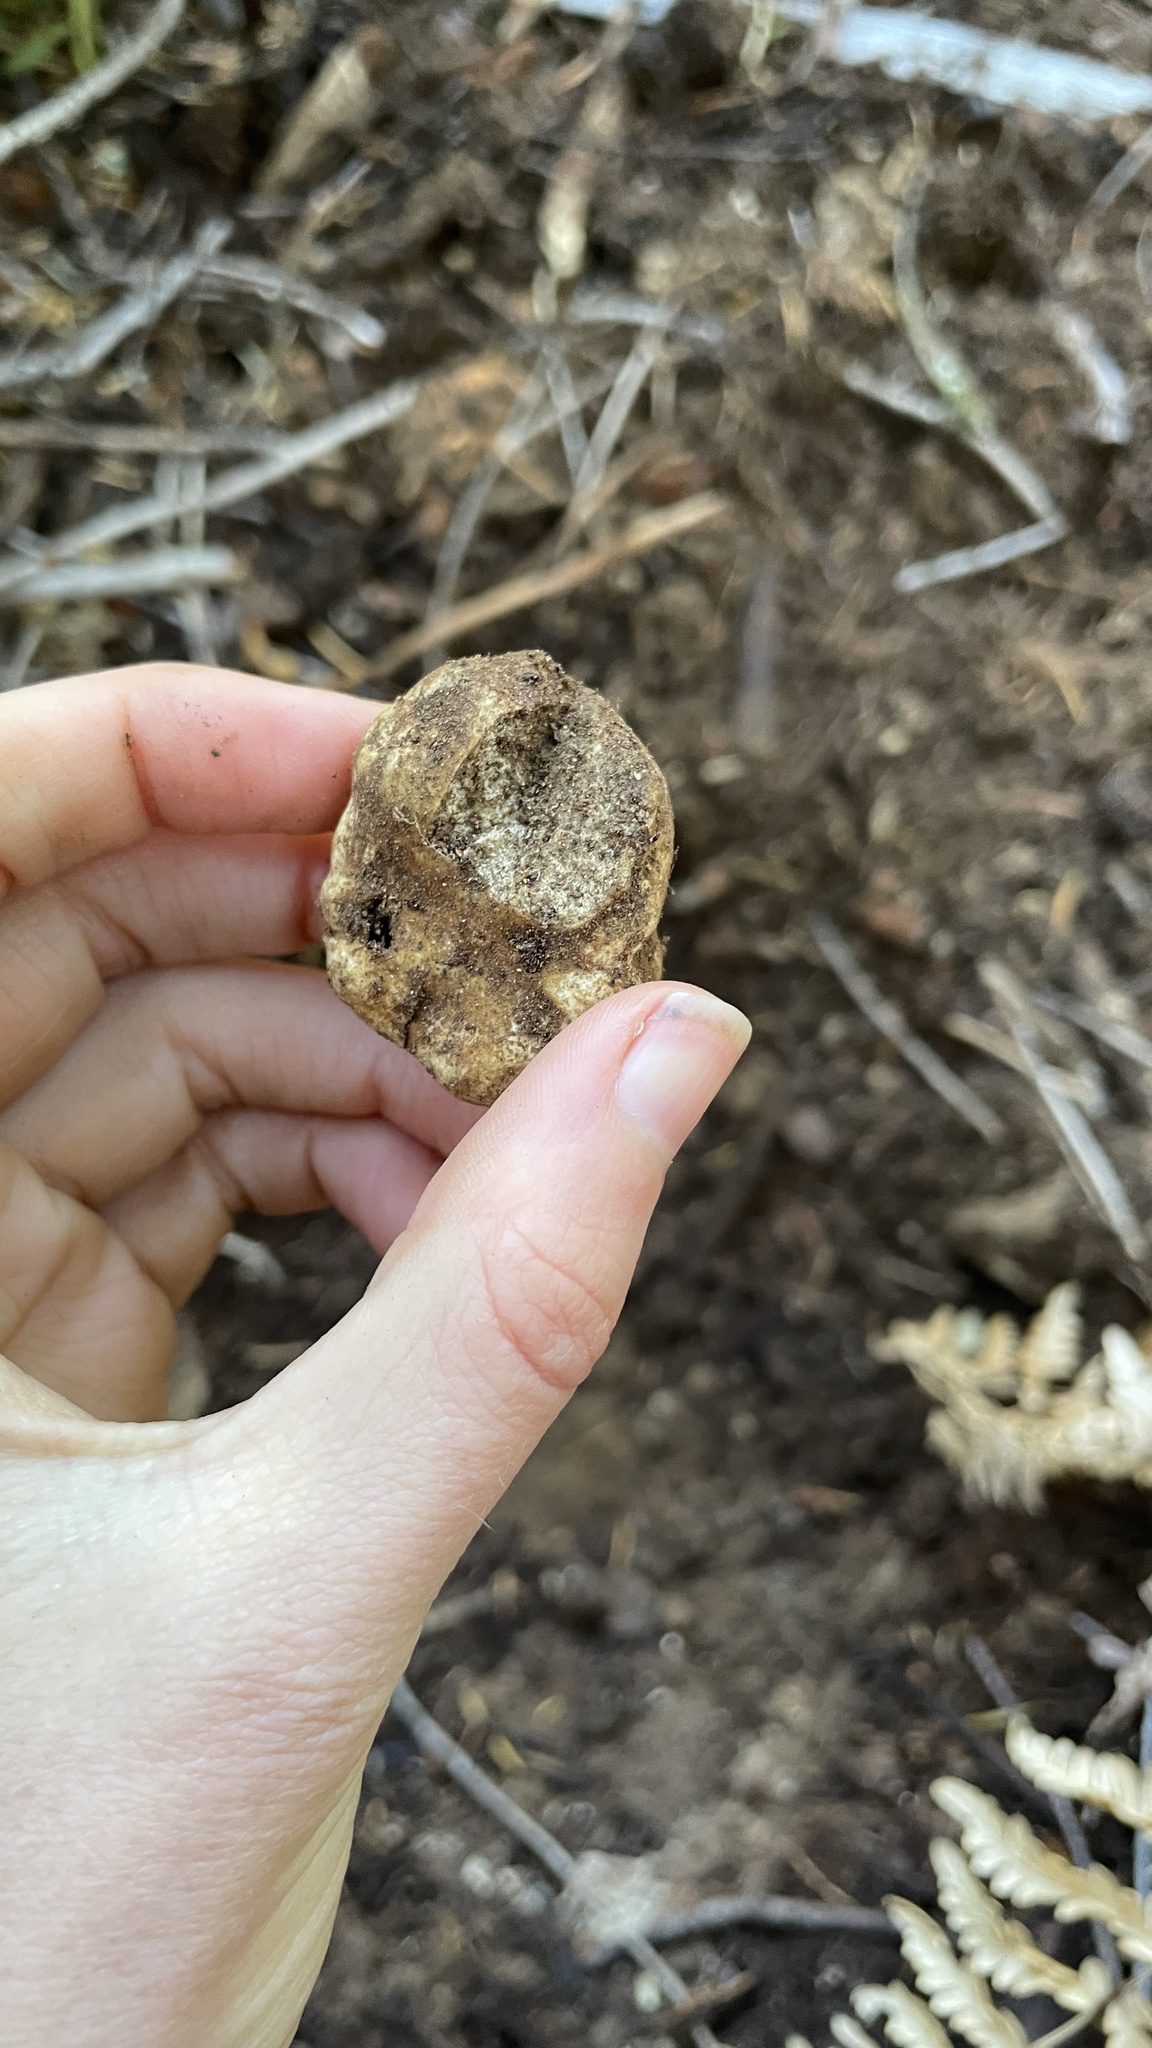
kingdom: Fungi
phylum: Basidiomycota
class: Agaricomycetes
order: Russulales
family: Russulaceae
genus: Russula
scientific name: Russula similaris
